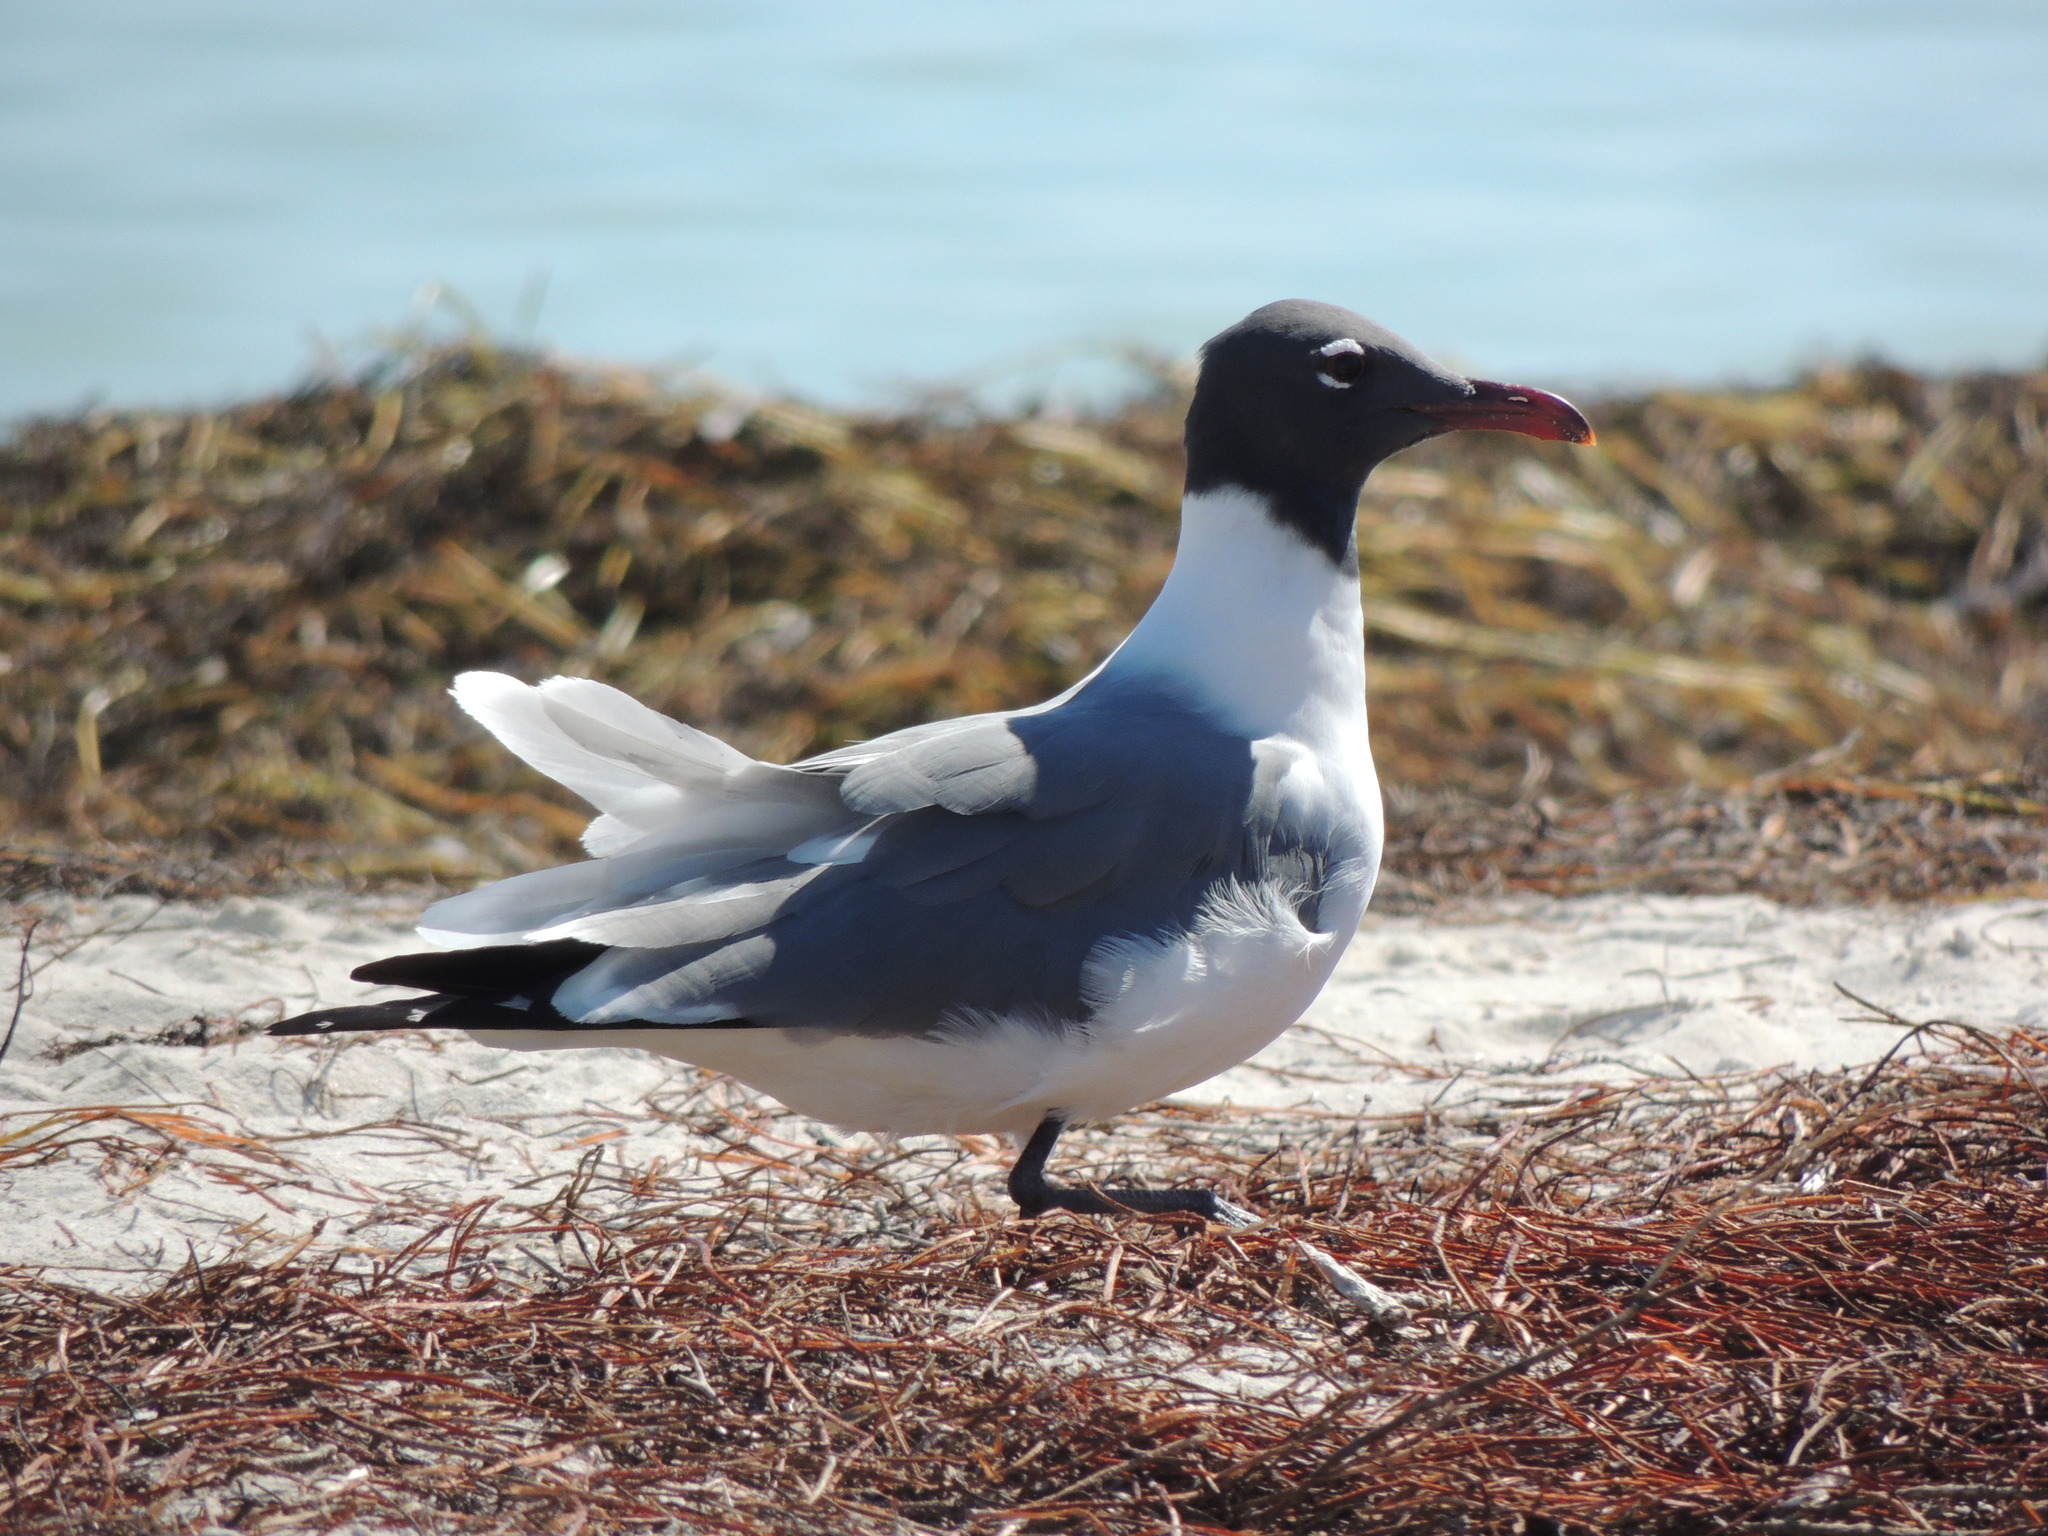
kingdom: Animalia
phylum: Chordata
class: Aves
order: Charadriiformes
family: Laridae
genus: Leucophaeus
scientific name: Leucophaeus atricilla
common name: Laughing gull
